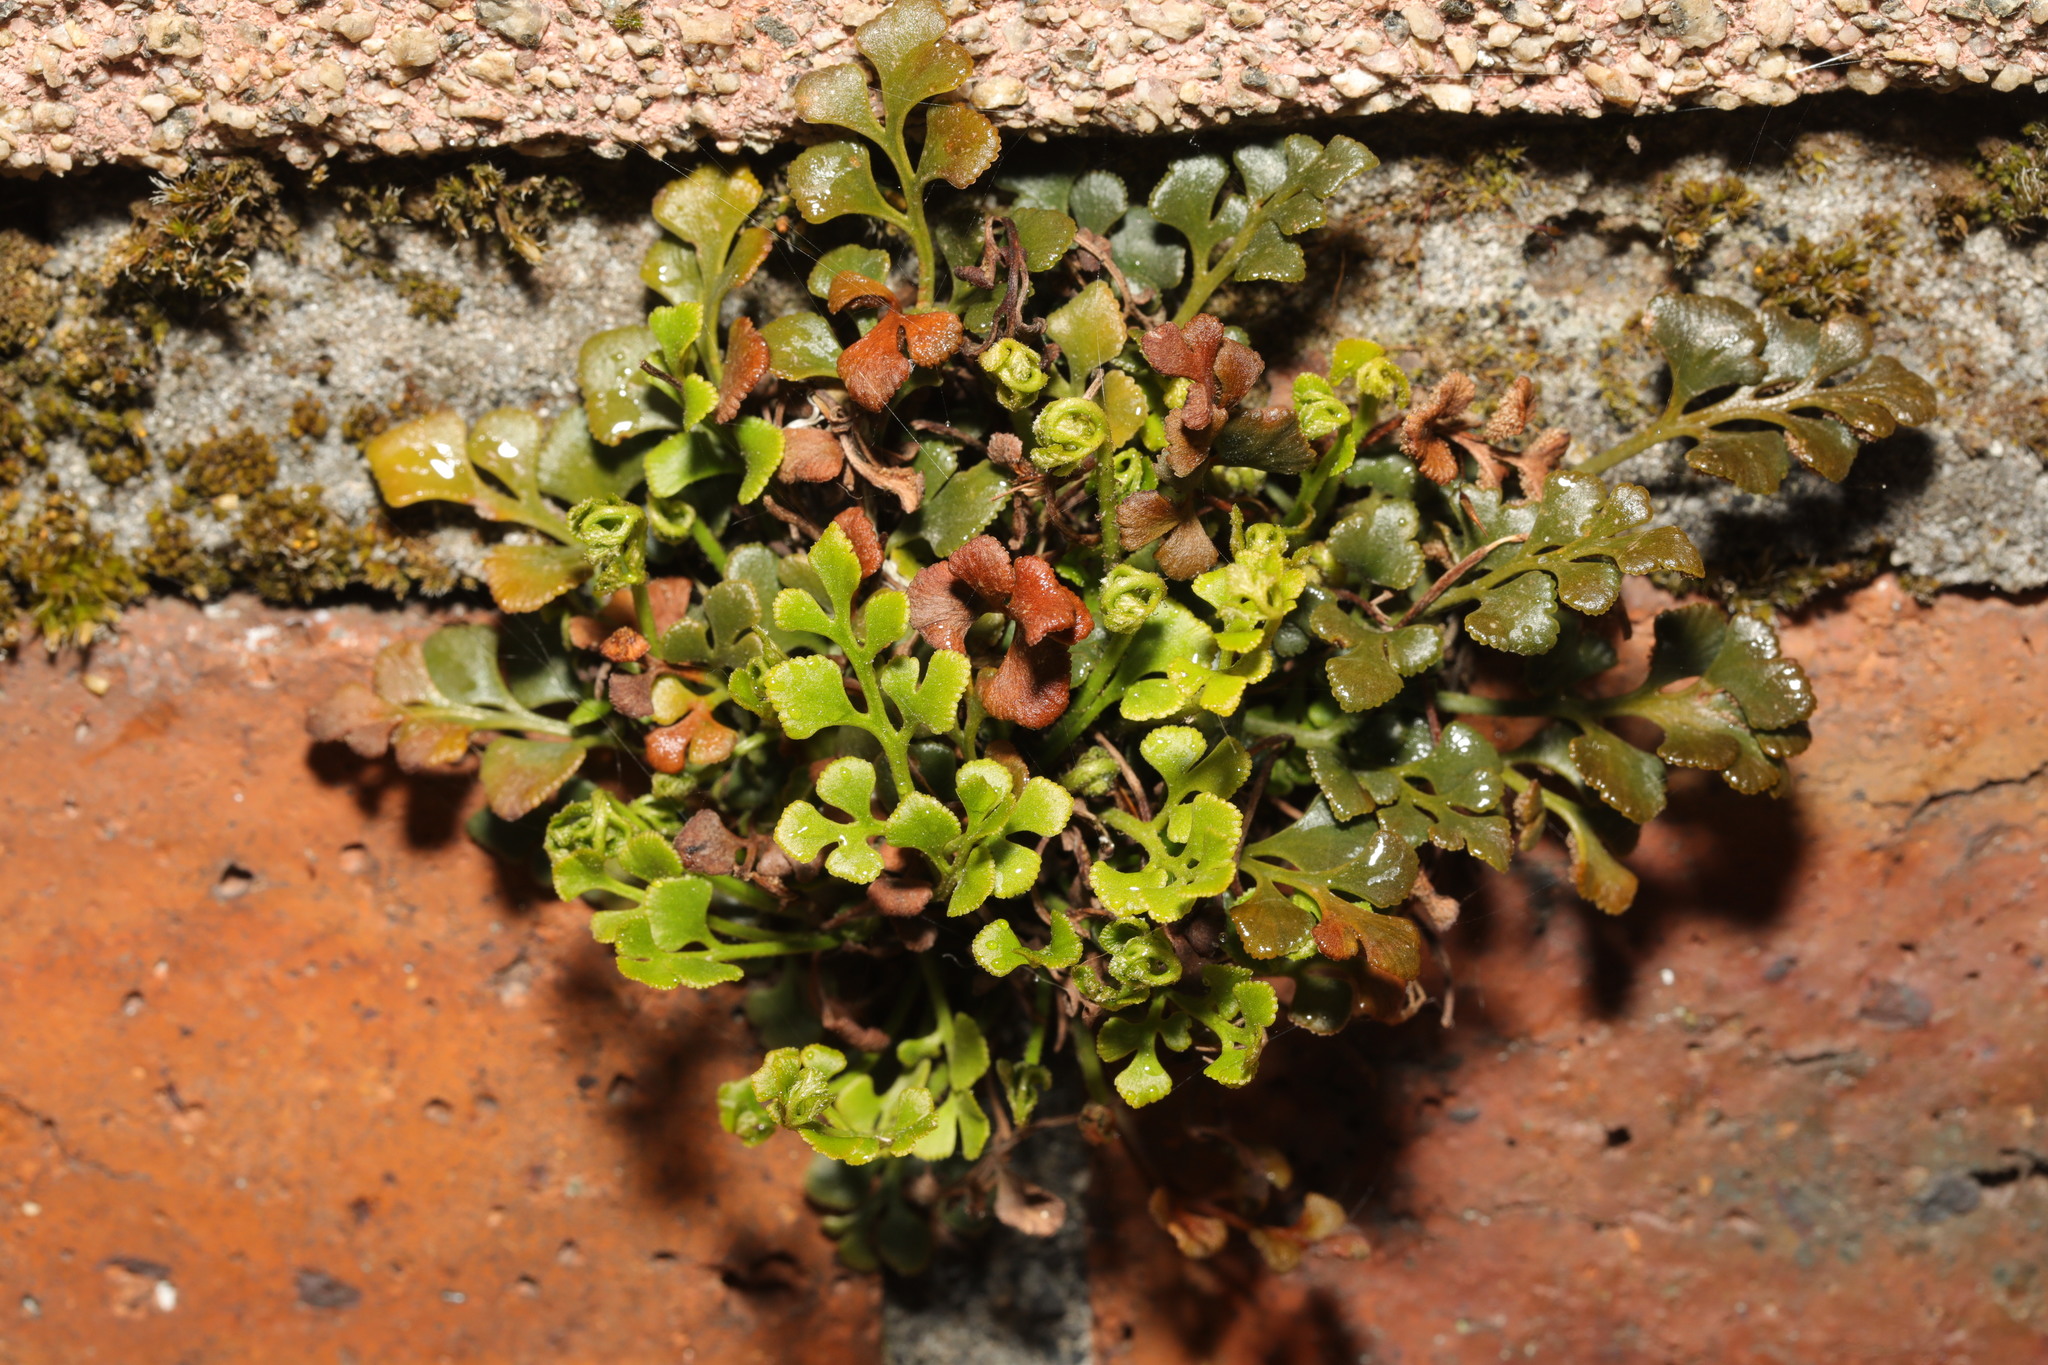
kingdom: Plantae
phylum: Tracheophyta
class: Polypodiopsida
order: Polypodiales
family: Aspleniaceae
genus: Asplenium
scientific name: Asplenium ruta-muraria
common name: Wall-rue
